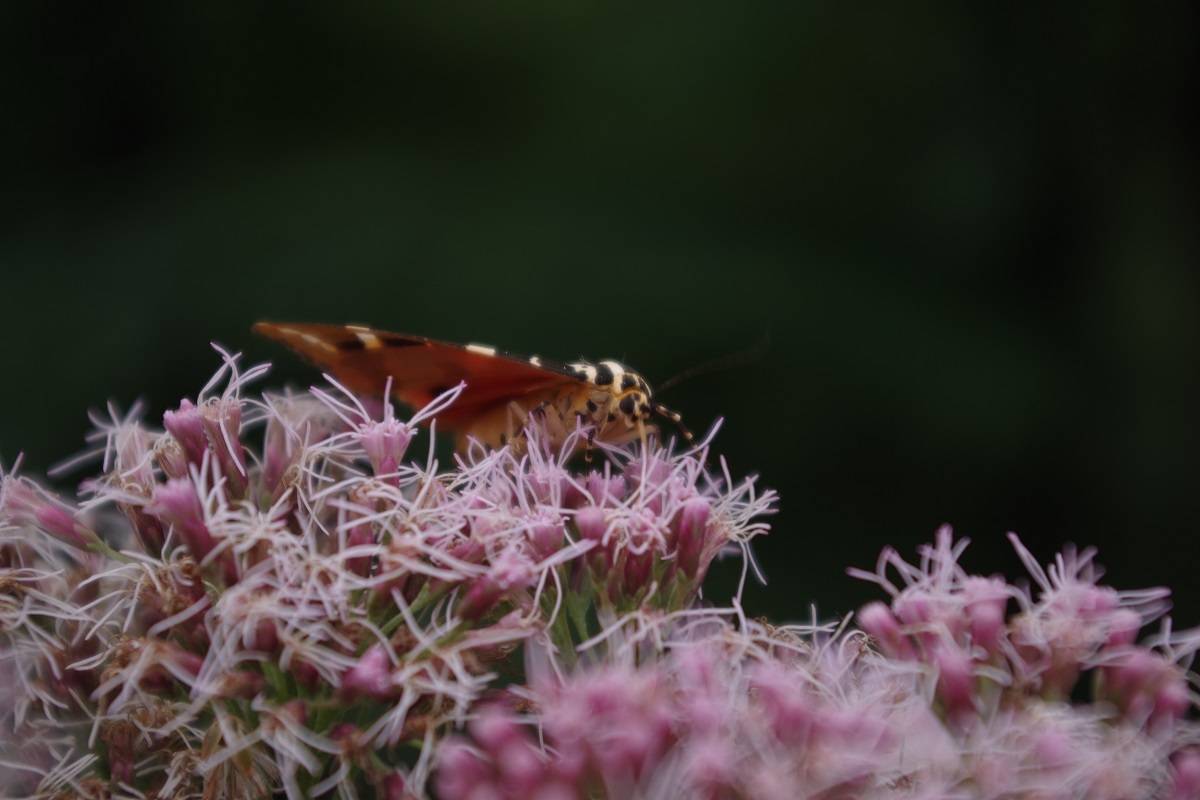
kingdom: Animalia
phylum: Arthropoda
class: Insecta
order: Lepidoptera
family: Erebidae
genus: Euplagia
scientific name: Euplagia quadripunctaria
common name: Jersey tiger
